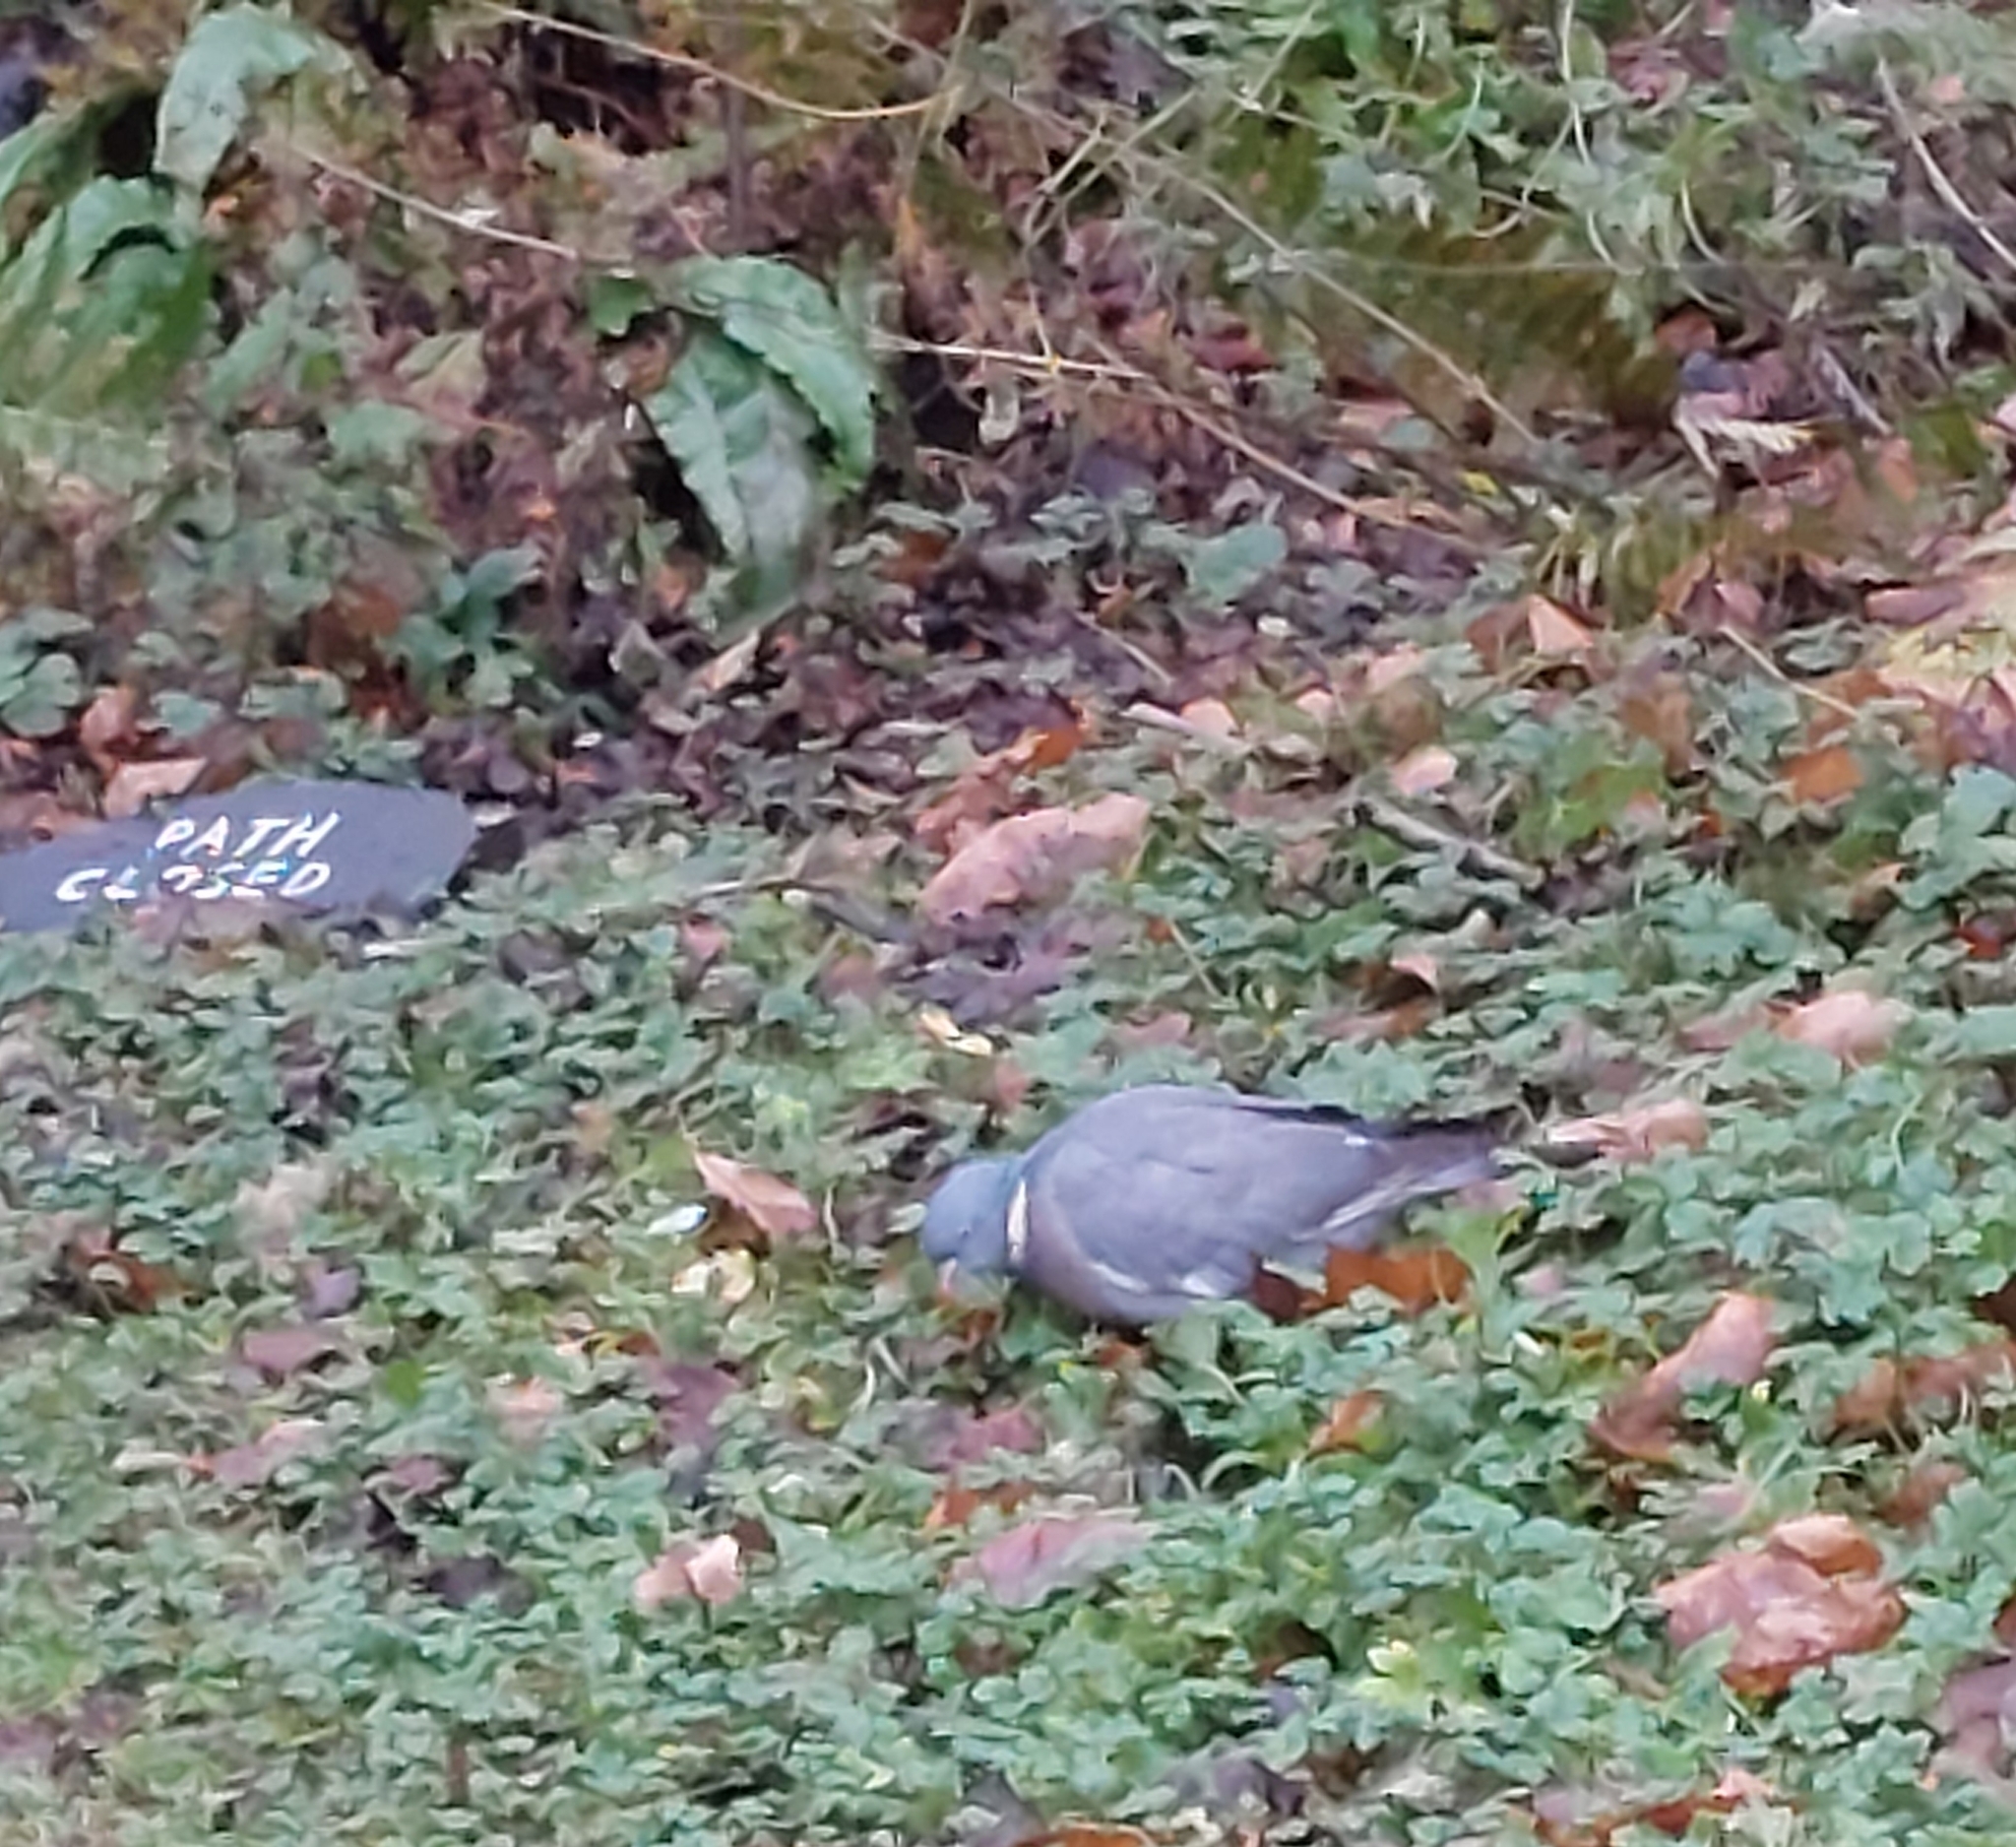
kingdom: Animalia
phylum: Chordata
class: Aves
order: Columbiformes
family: Columbidae
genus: Columba
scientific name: Columba palumbus
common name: Common wood pigeon
